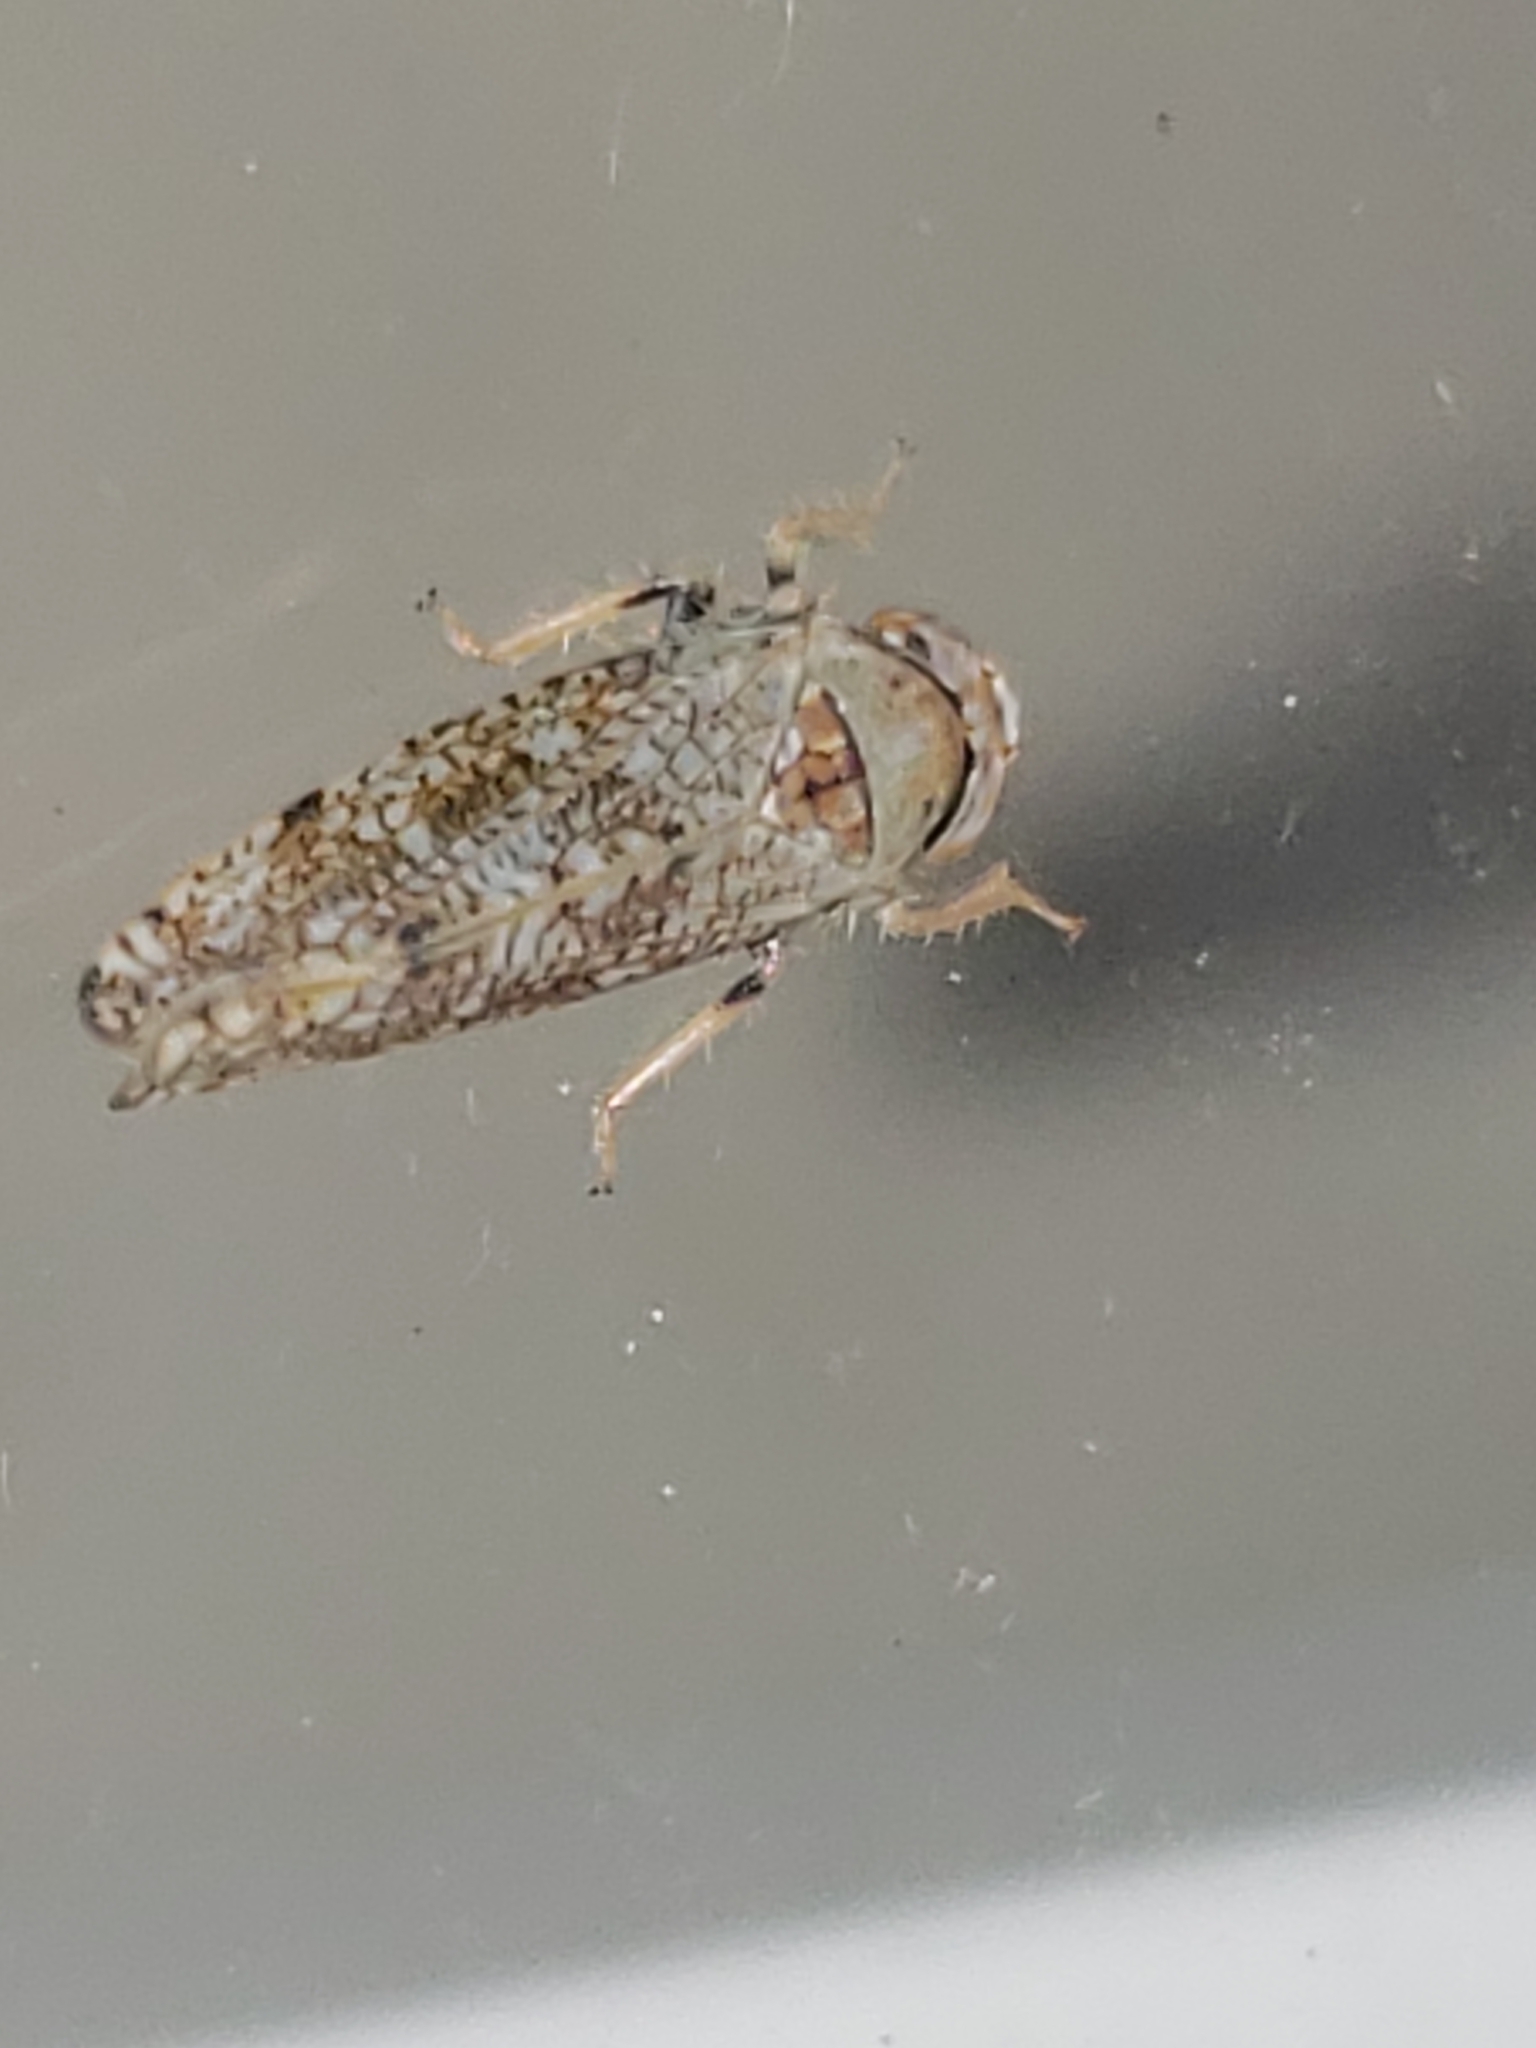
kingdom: Animalia
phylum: Arthropoda
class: Insecta
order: Hemiptera
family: Cicadellidae
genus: Orientus
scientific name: Orientus ishidae
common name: Japanese leafhopper
